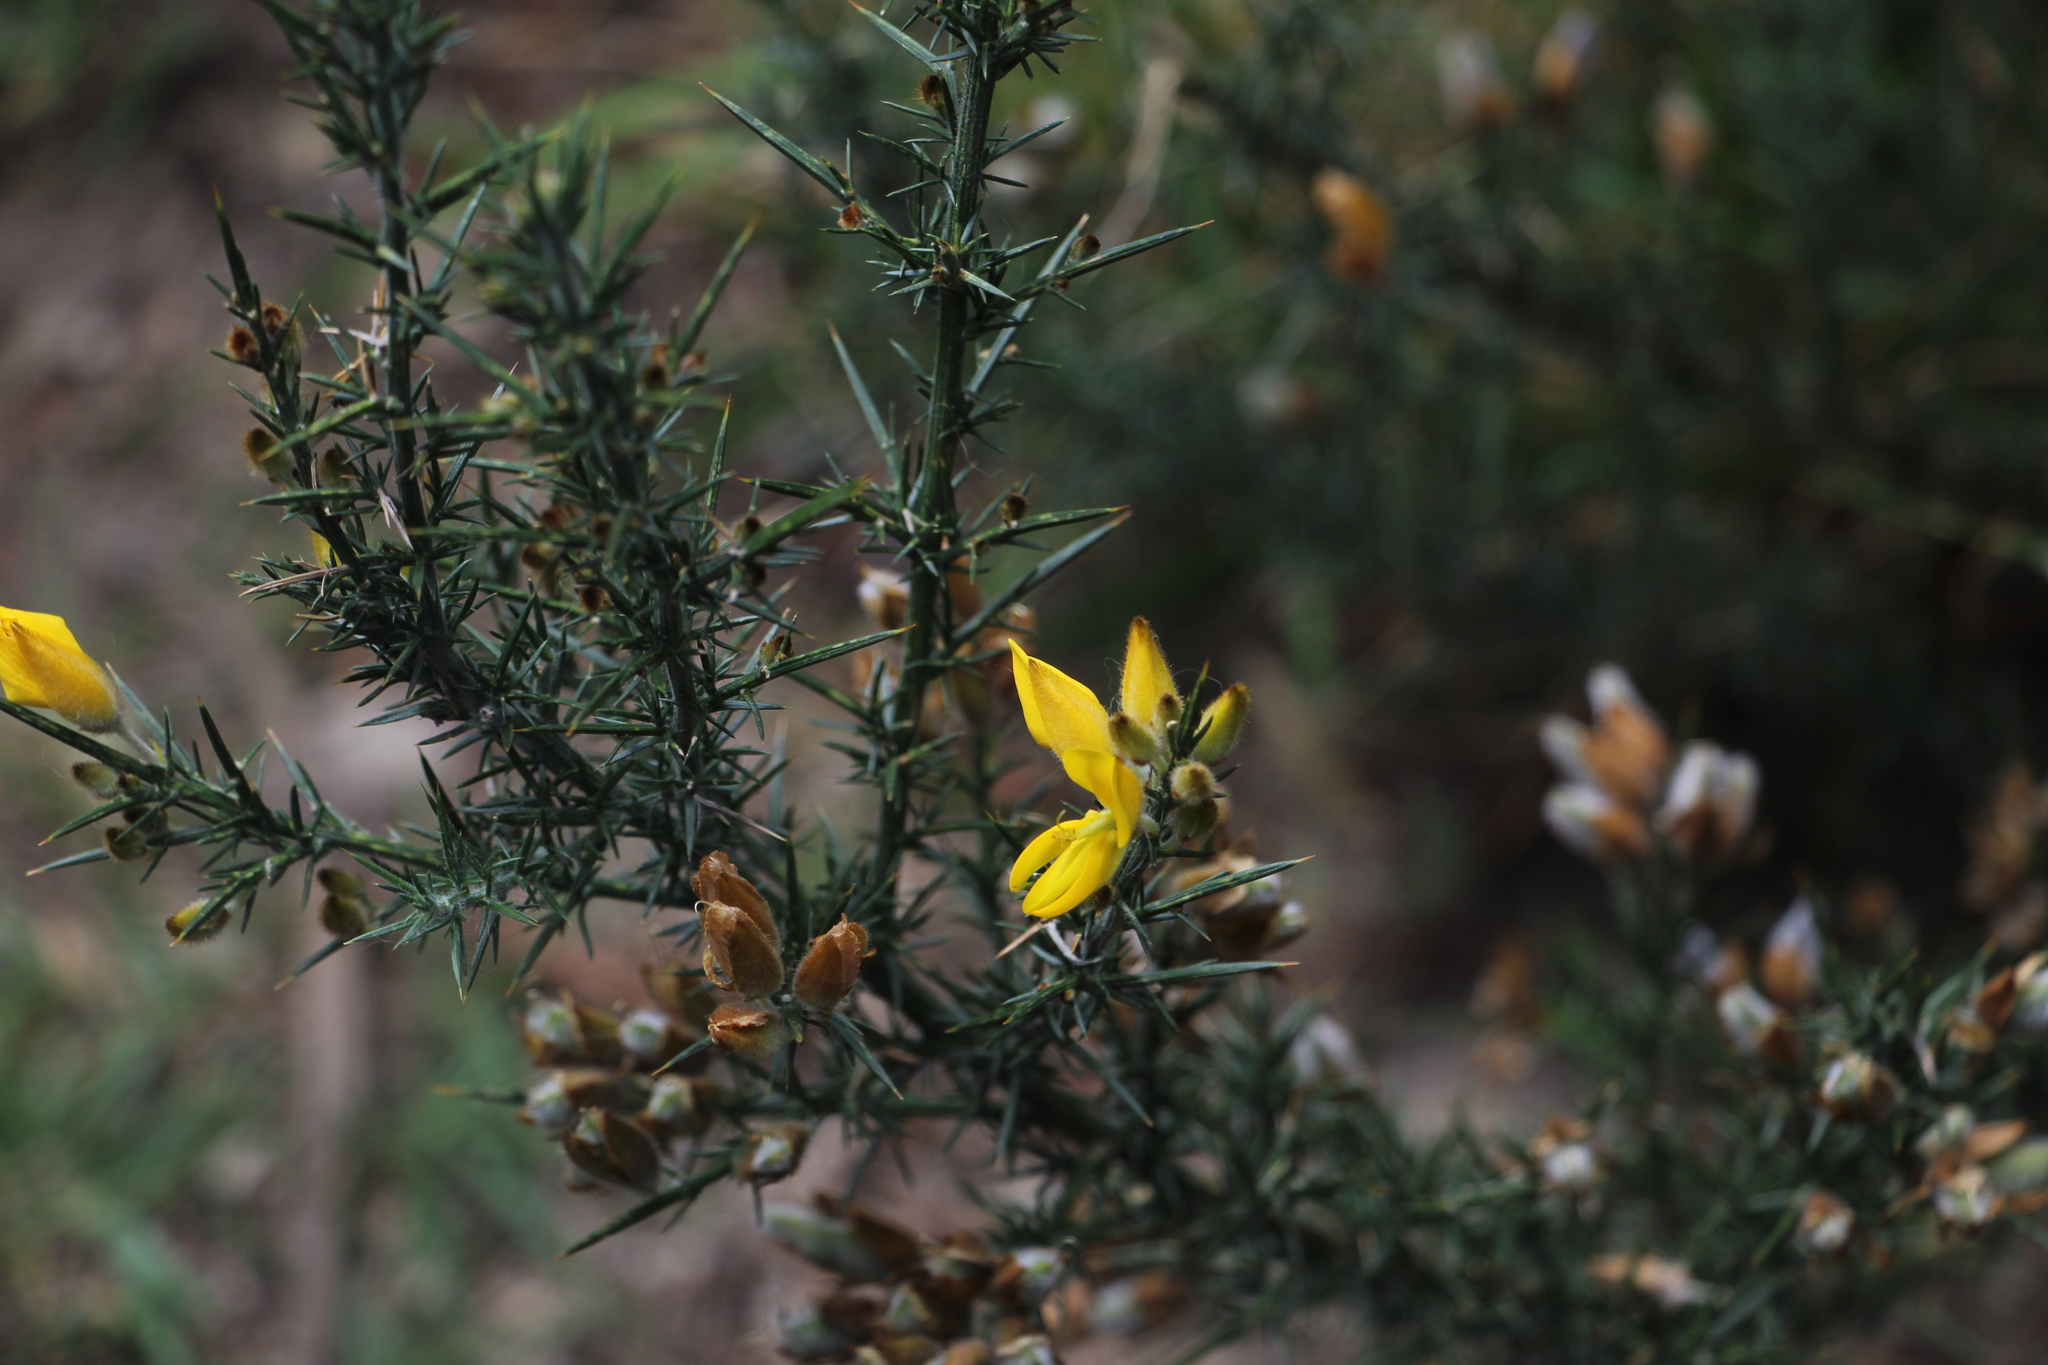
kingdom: Plantae
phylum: Tracheophyta
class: Magnoliopsida
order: Fabales
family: Fabaceae
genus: Ulex
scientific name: Ulex europaeus
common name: Common gorse
